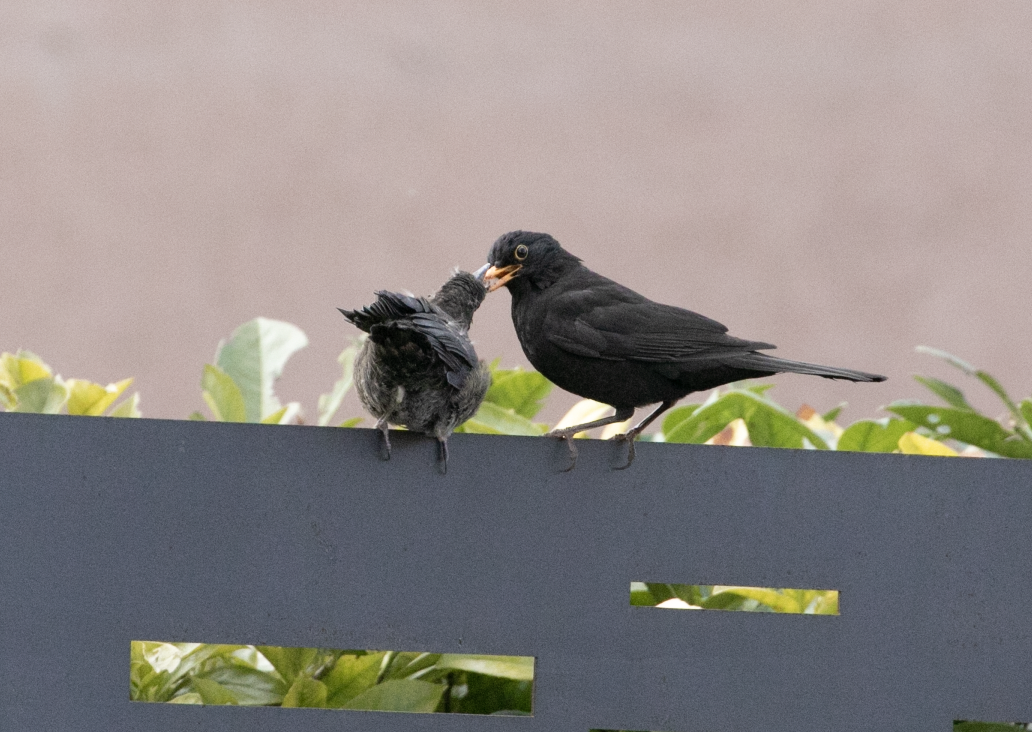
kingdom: Animalia
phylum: Chordata
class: Aves
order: Passeriformes
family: Turdidae
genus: Turdus
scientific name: Turdus merula
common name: Common blackbird
